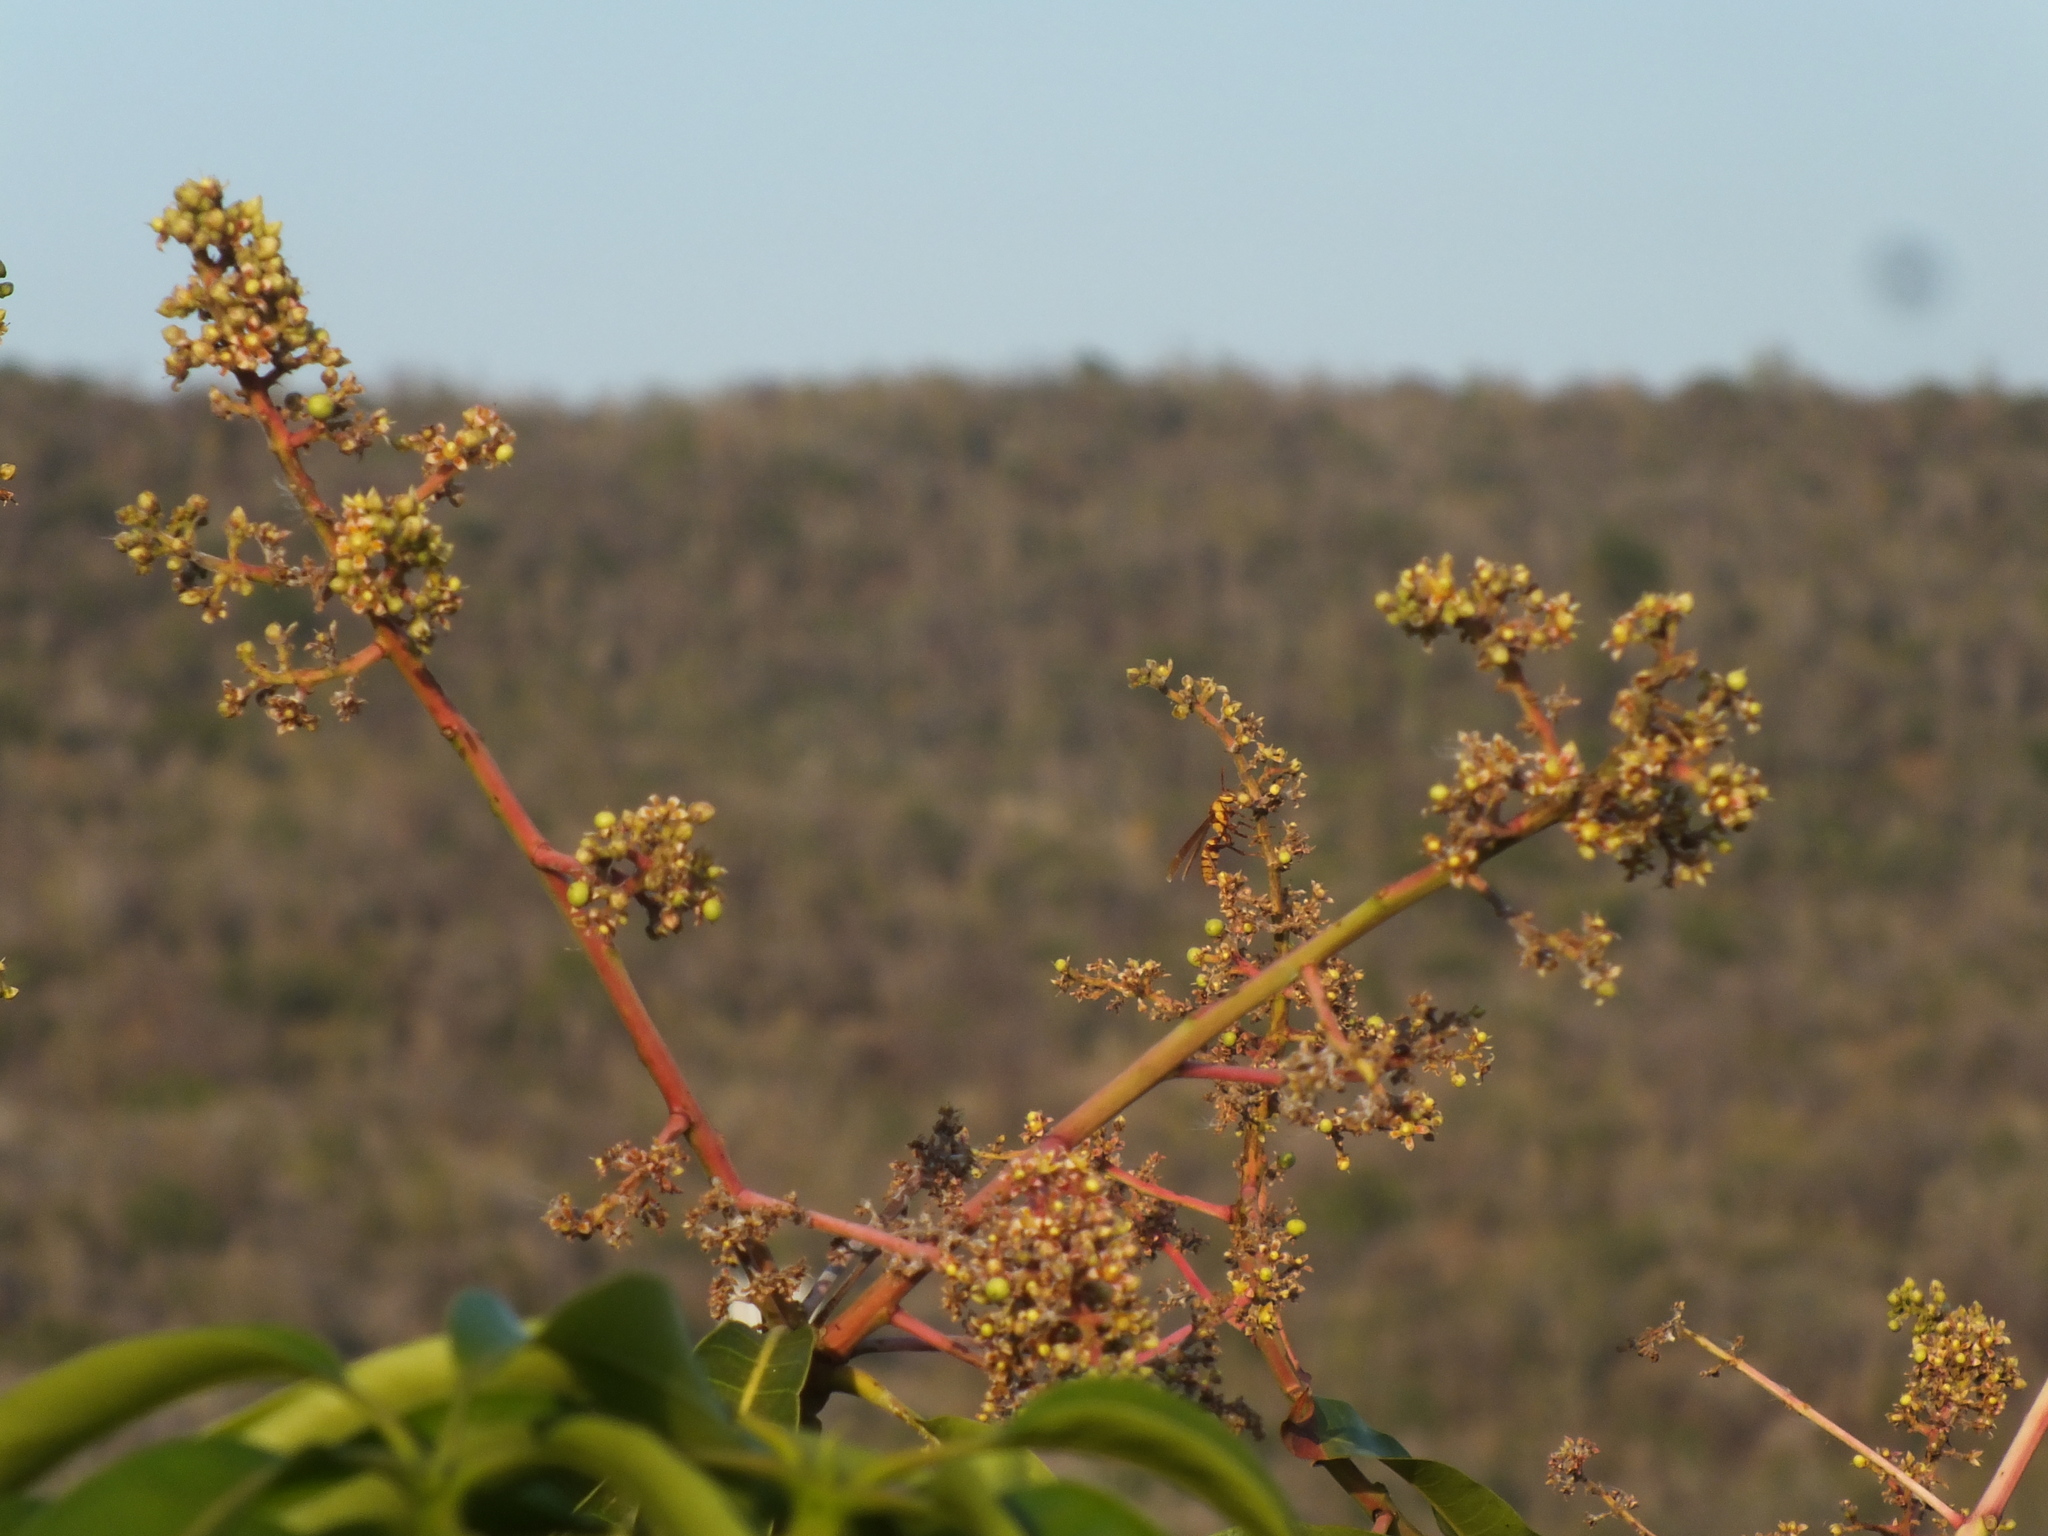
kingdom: Animalia
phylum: Arthropoda
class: Insecta
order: Hymenoptera
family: Eumenidae
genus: Polistes
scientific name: Polistes major
